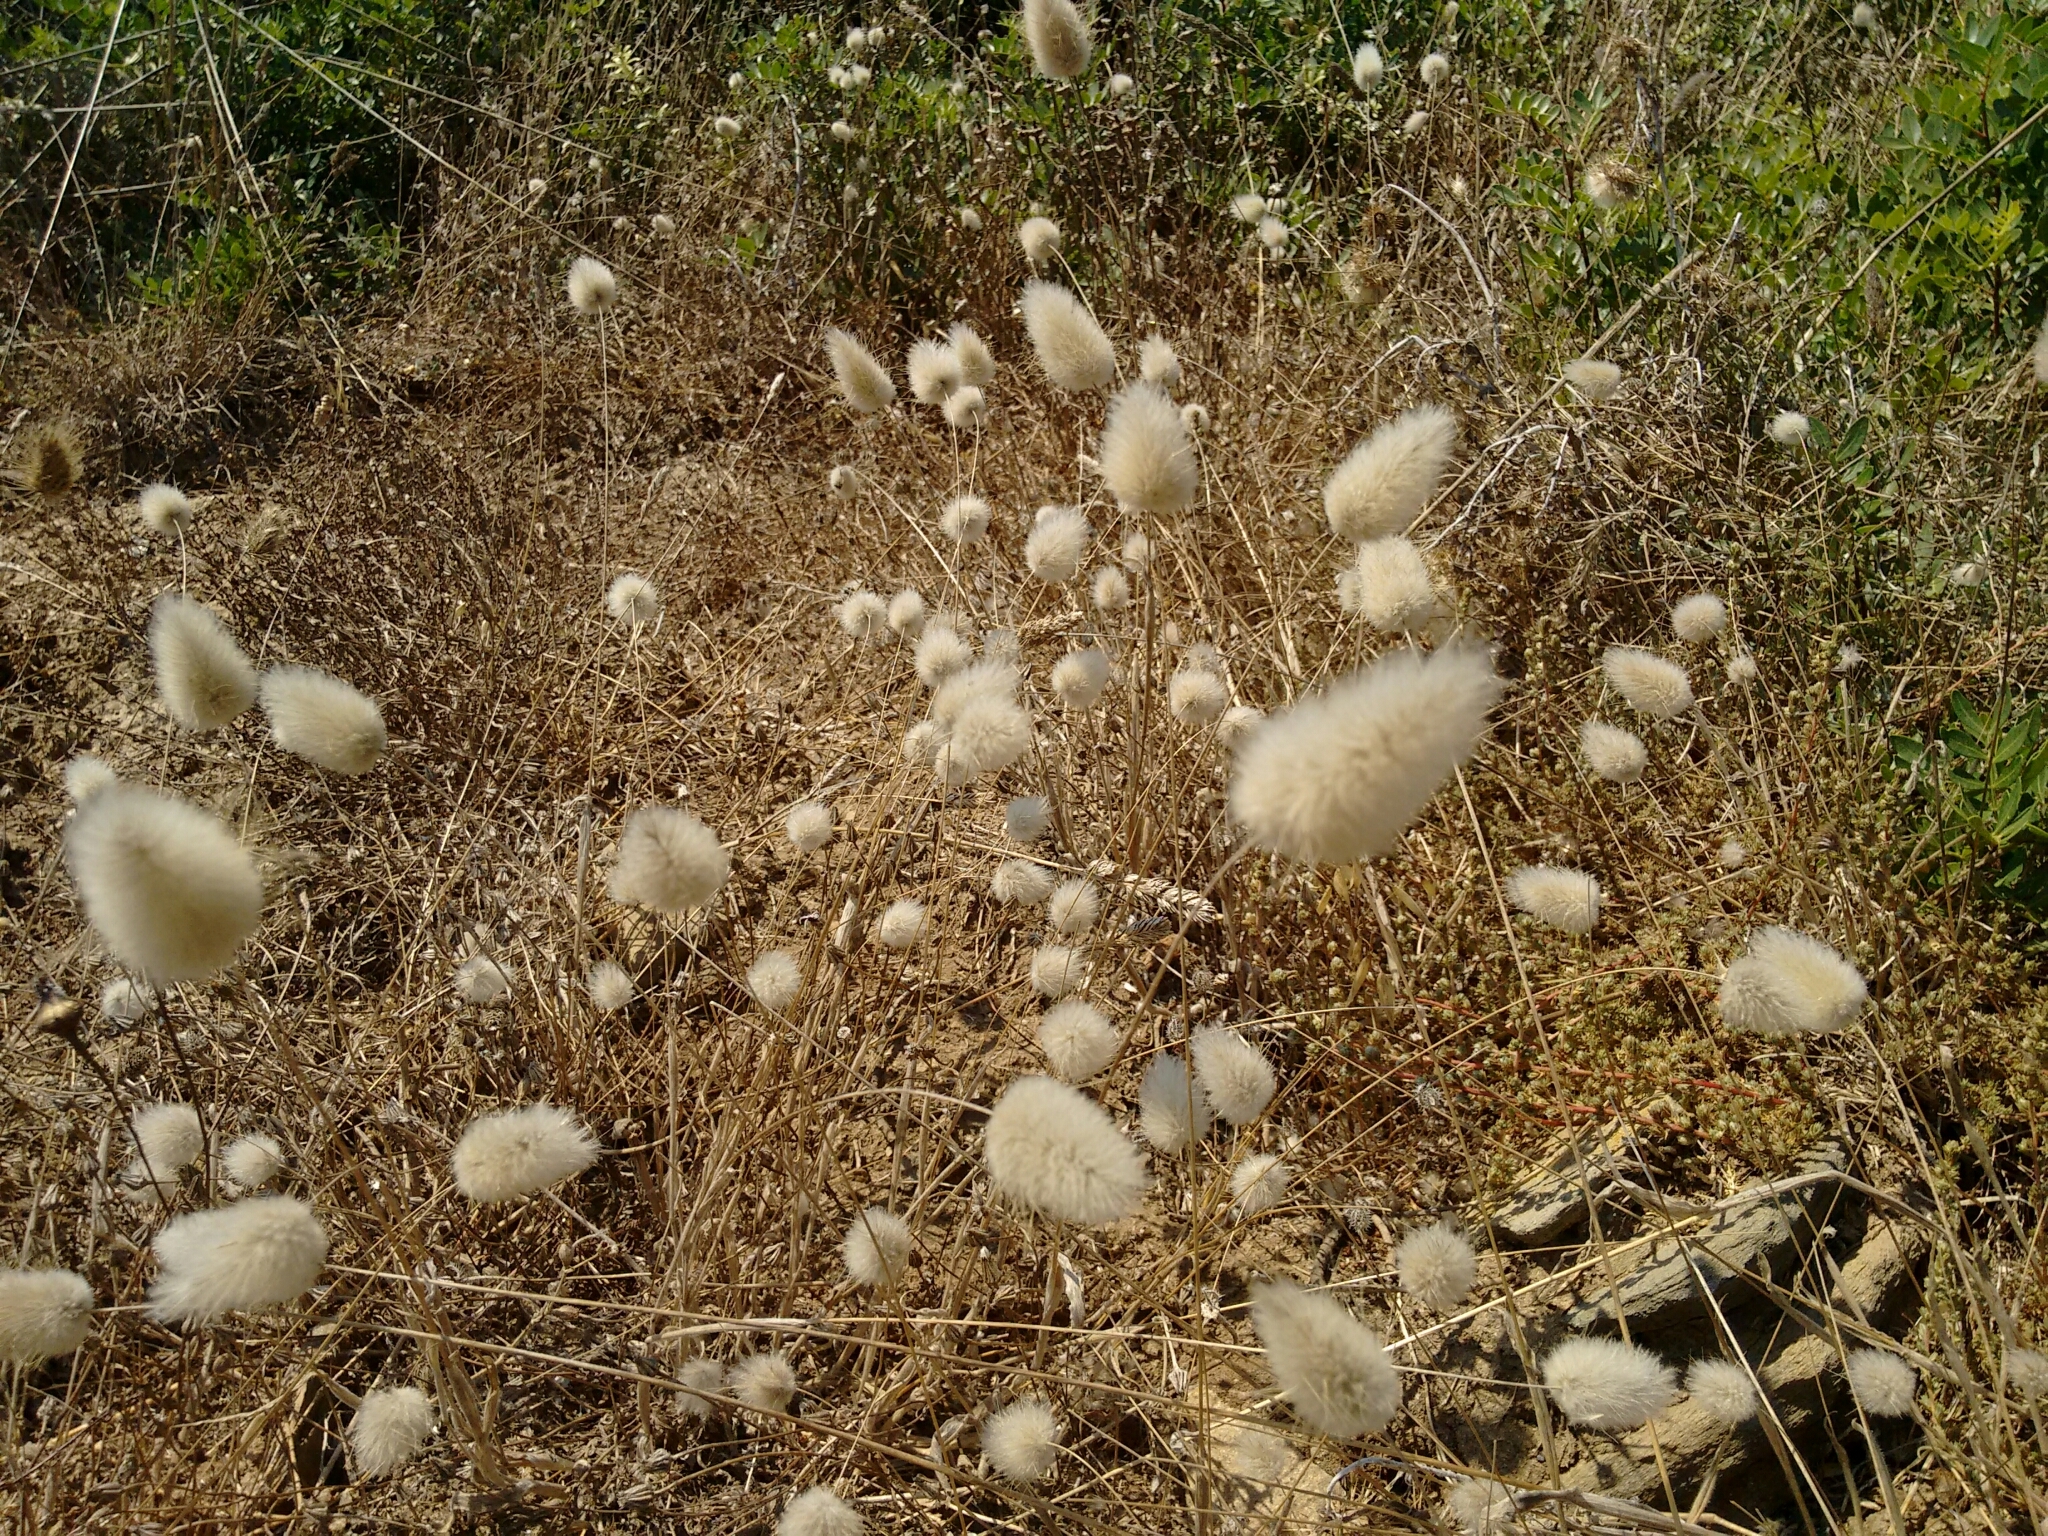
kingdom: Plantae
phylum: Tracheophyta
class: Liliopsida
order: Poales
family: Poaceae
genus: Lagurus
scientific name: Lagurus ovatus
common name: Hare's-tail
